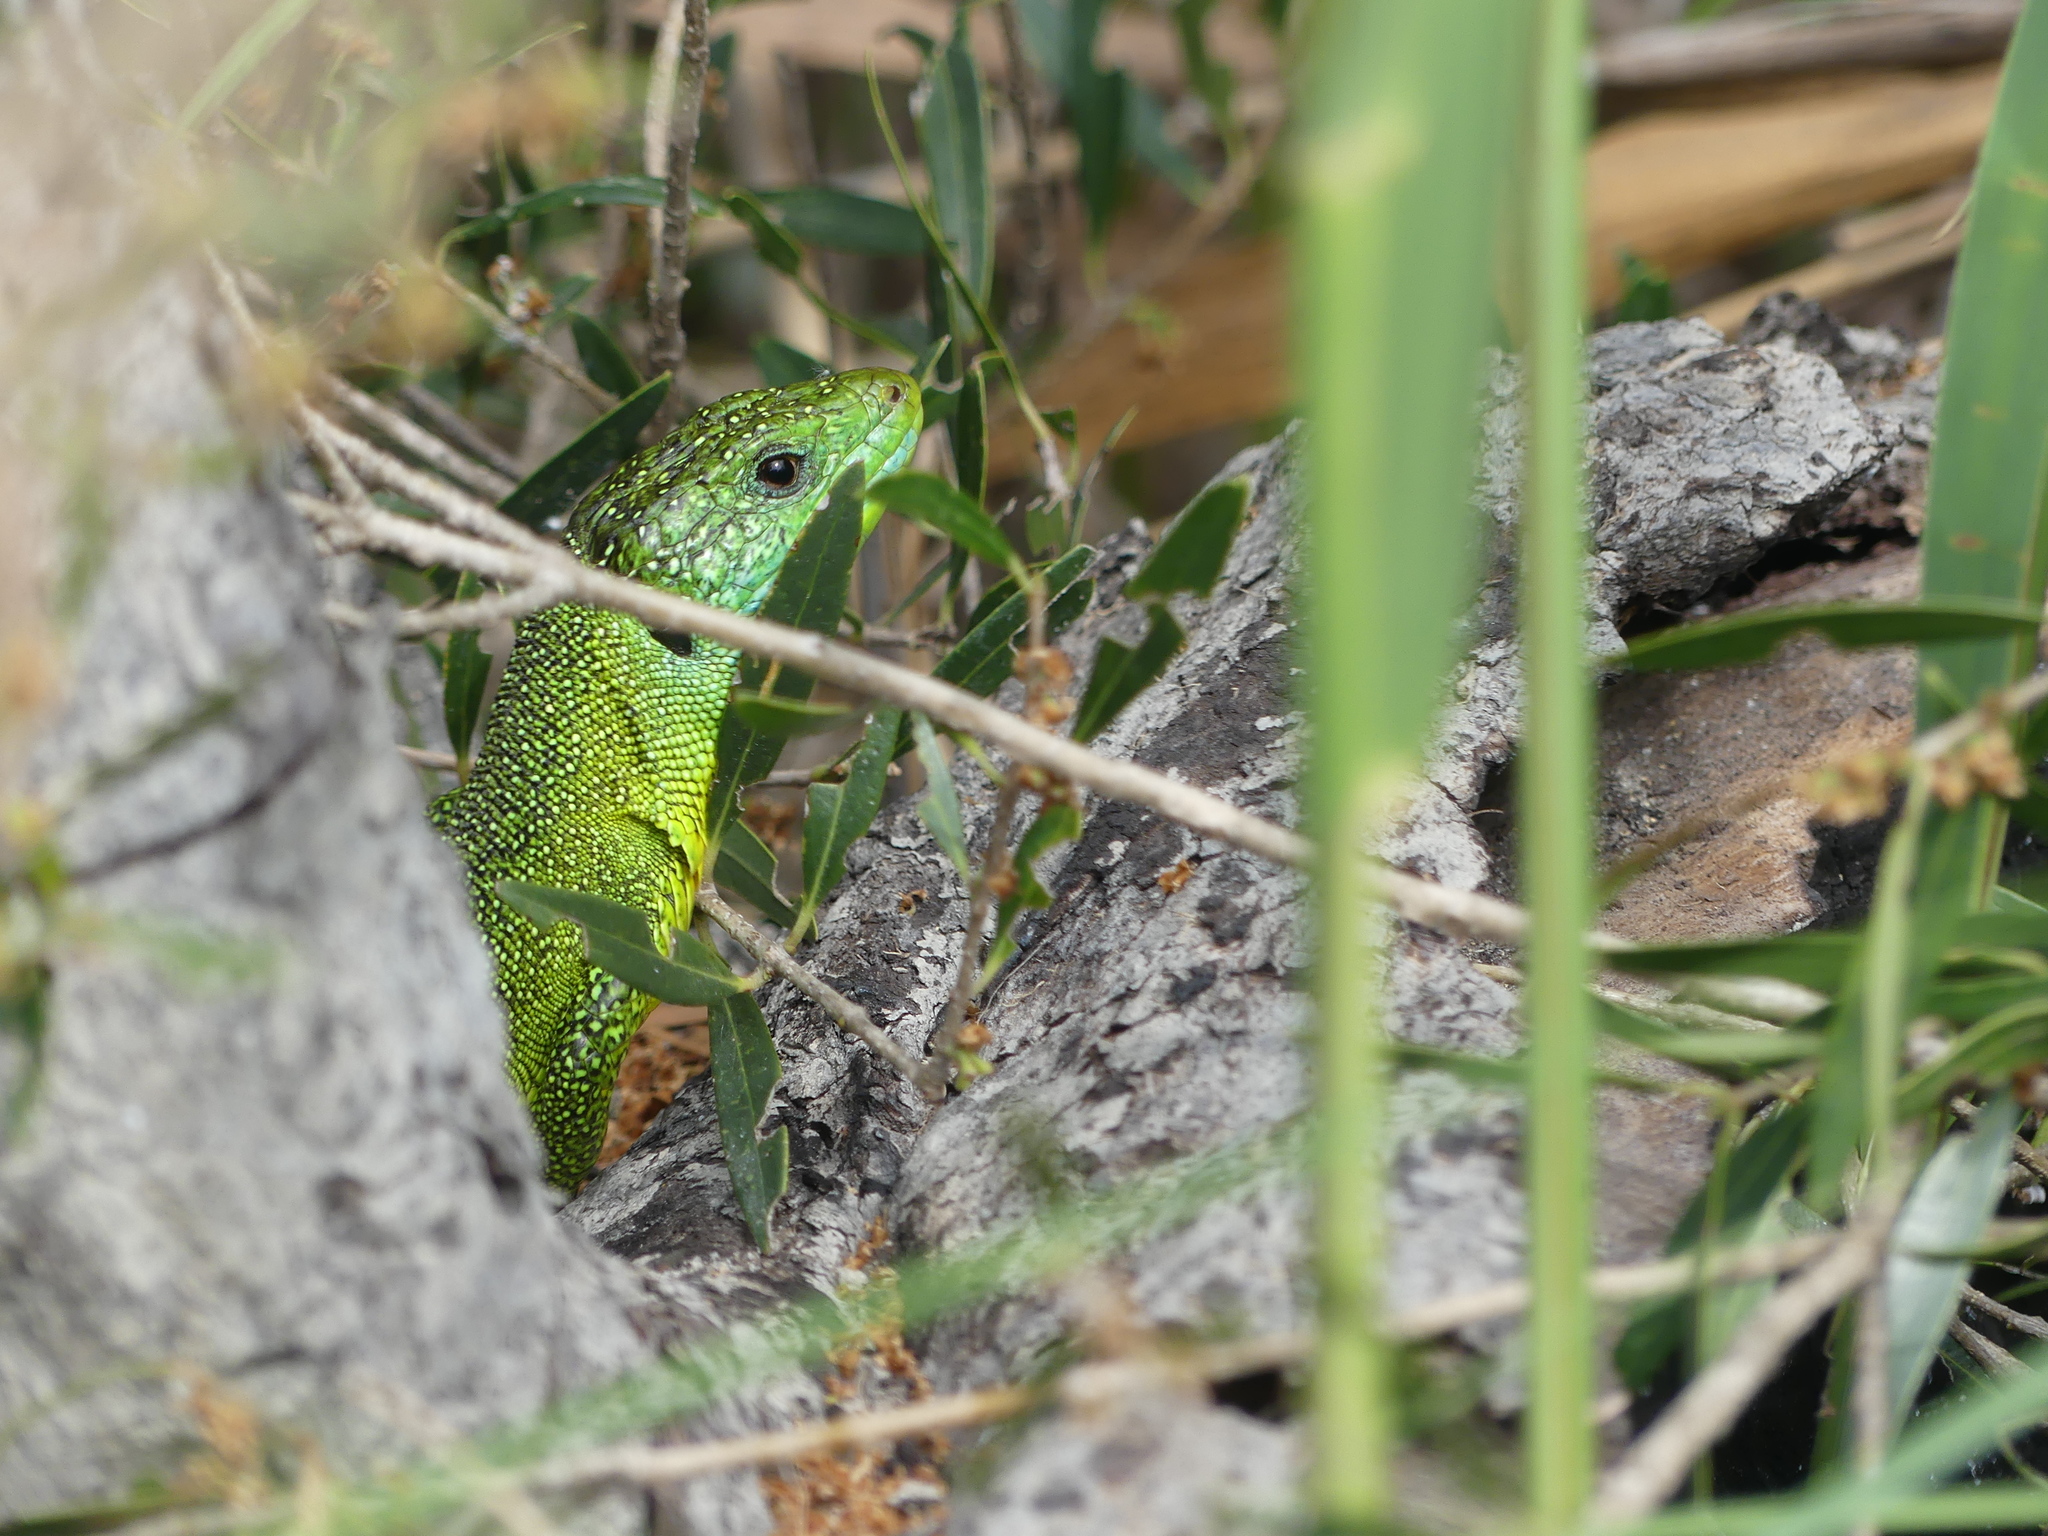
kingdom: Animalia
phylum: Chordata
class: Squamata
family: Lacertidae
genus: Lacerta
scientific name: Lacerta bilineata
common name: Western green lizard
